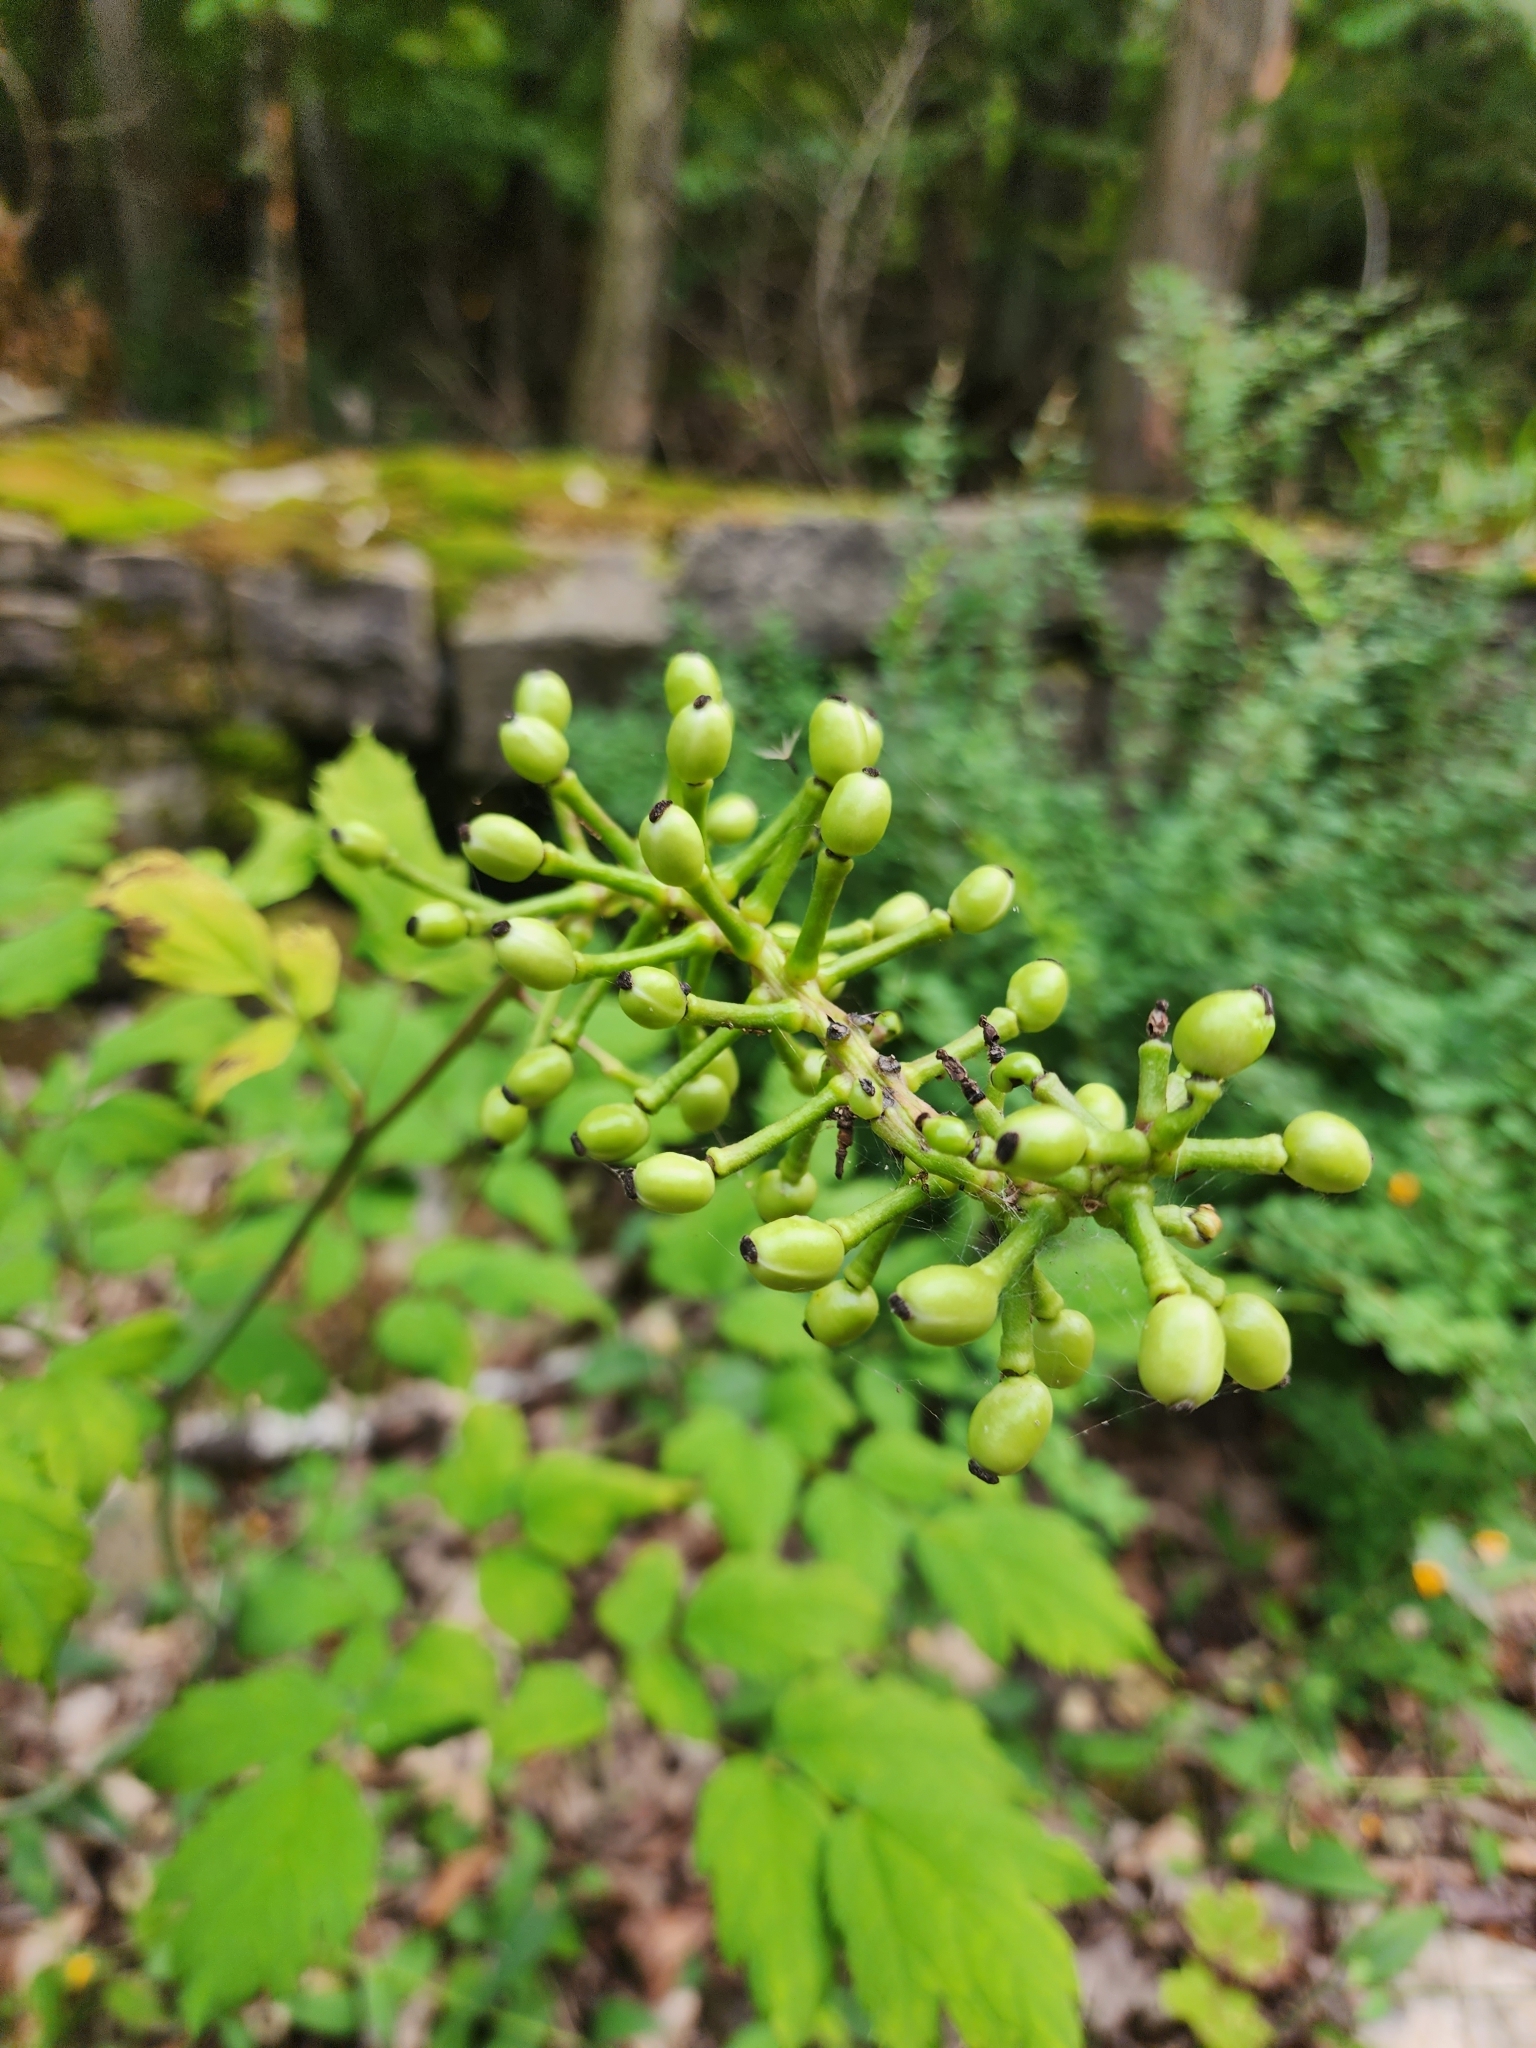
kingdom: Plantae
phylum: Tracheophyta
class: Magnoliopsida
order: Ranunculales
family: Ranunculaceae
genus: Actaea
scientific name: Actaea pachypoda
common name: Doll's-eyes
